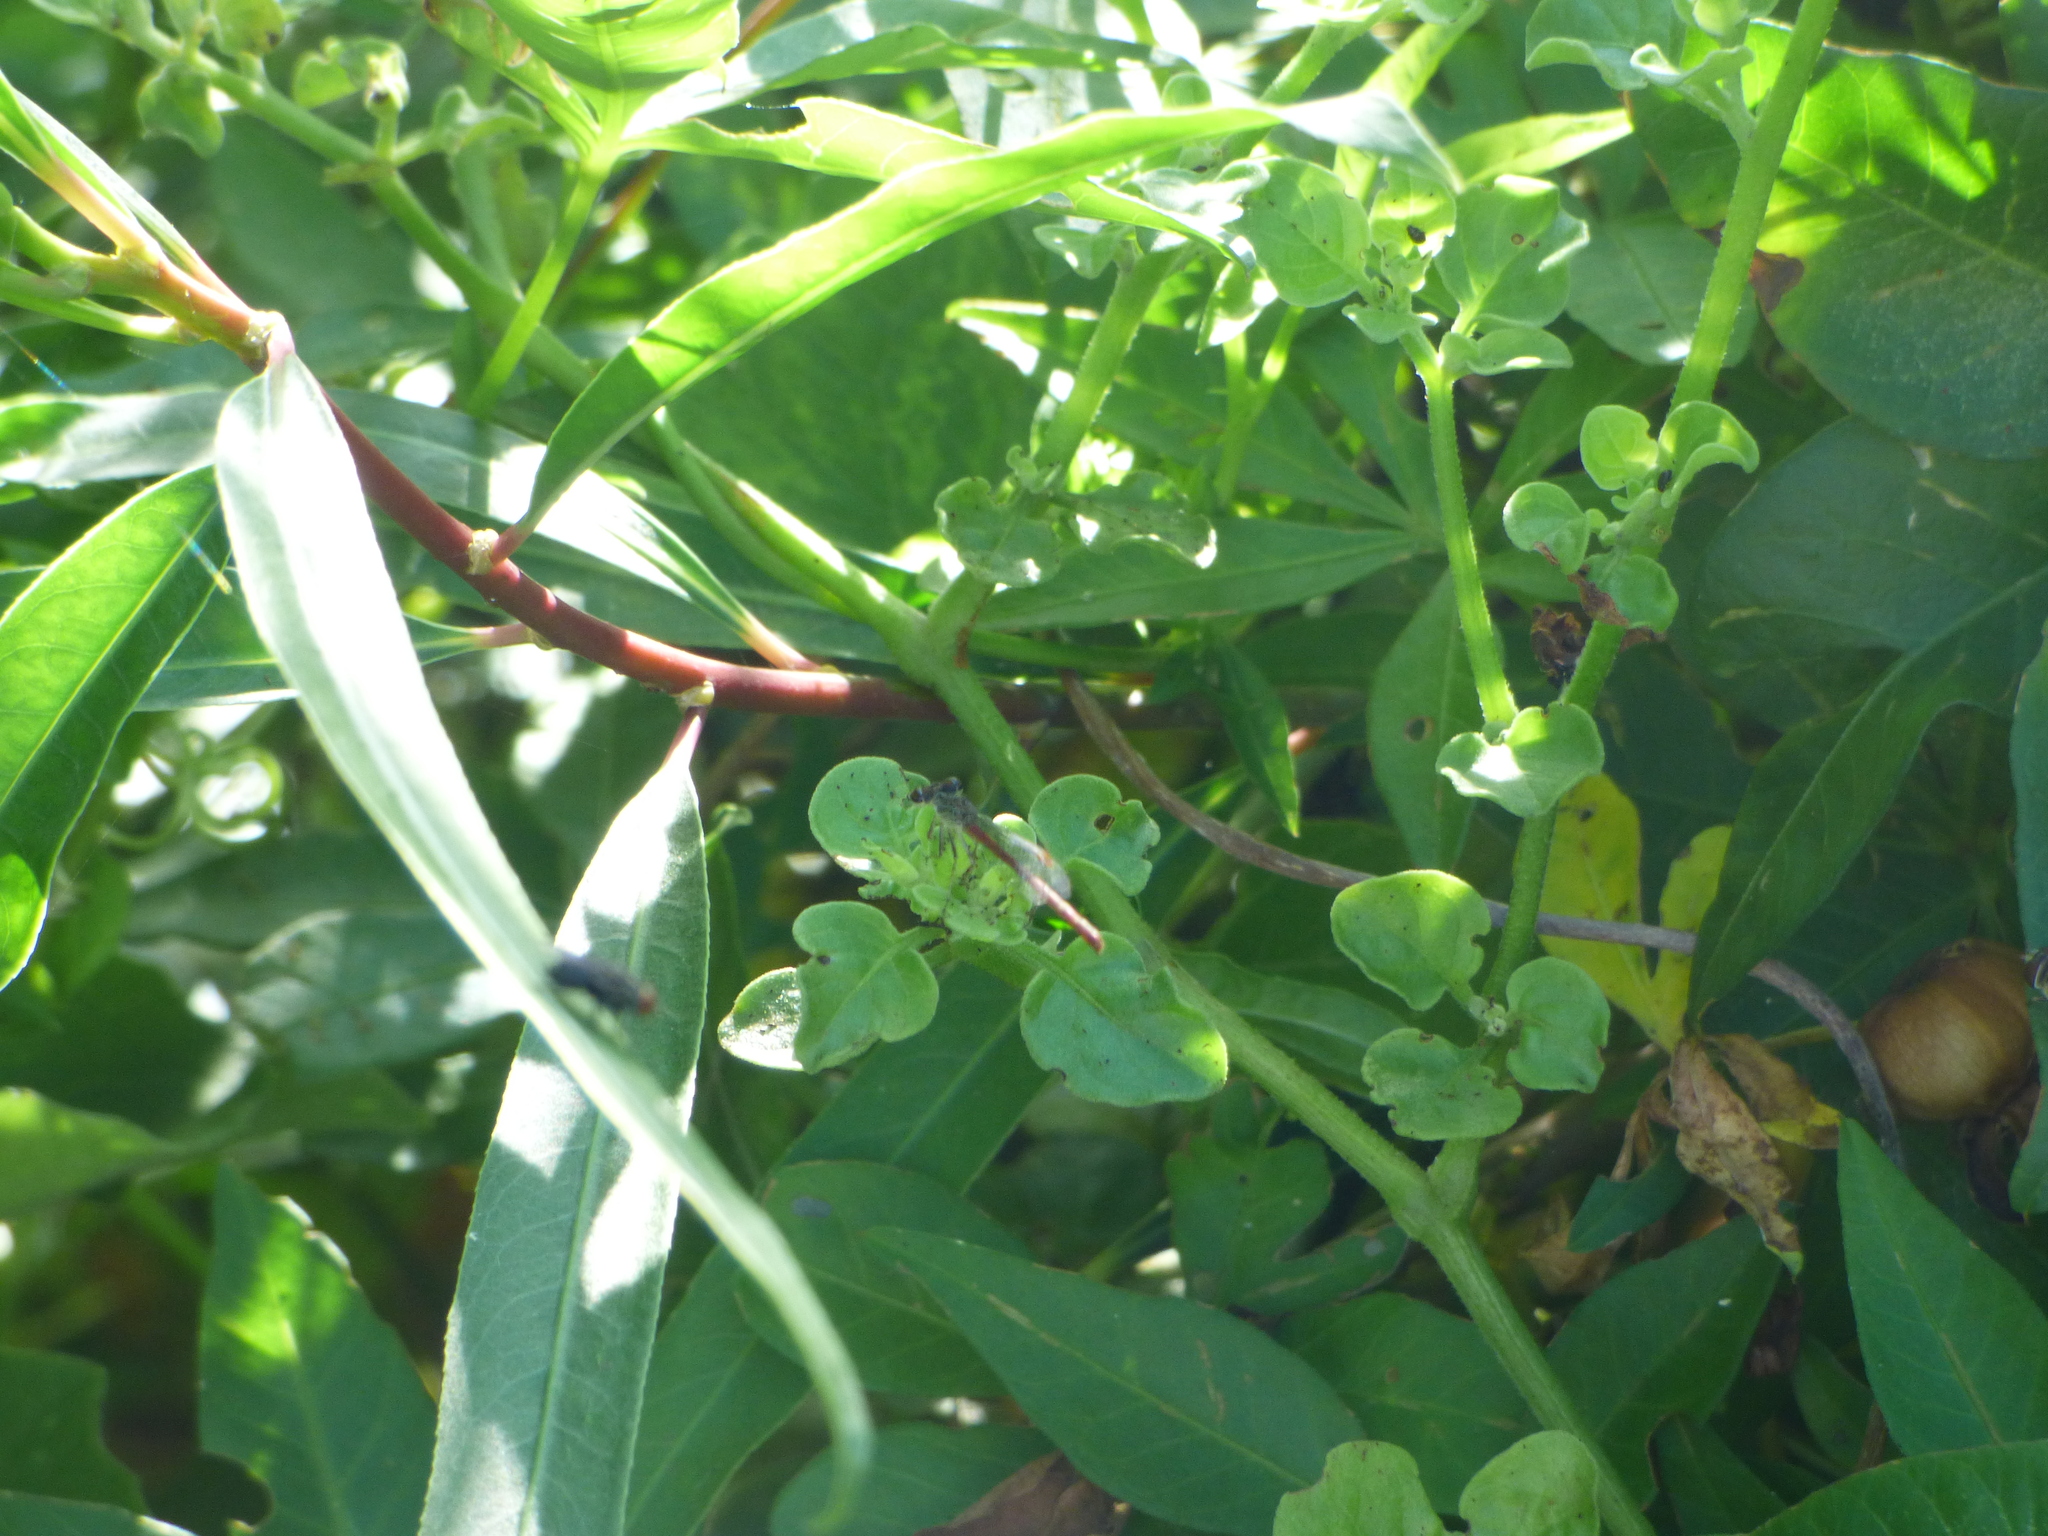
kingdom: Animalia
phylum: Arthropoda
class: Insecta
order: Odonata
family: Coenagrionidae
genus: Telebasis
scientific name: Telebasis willinki
